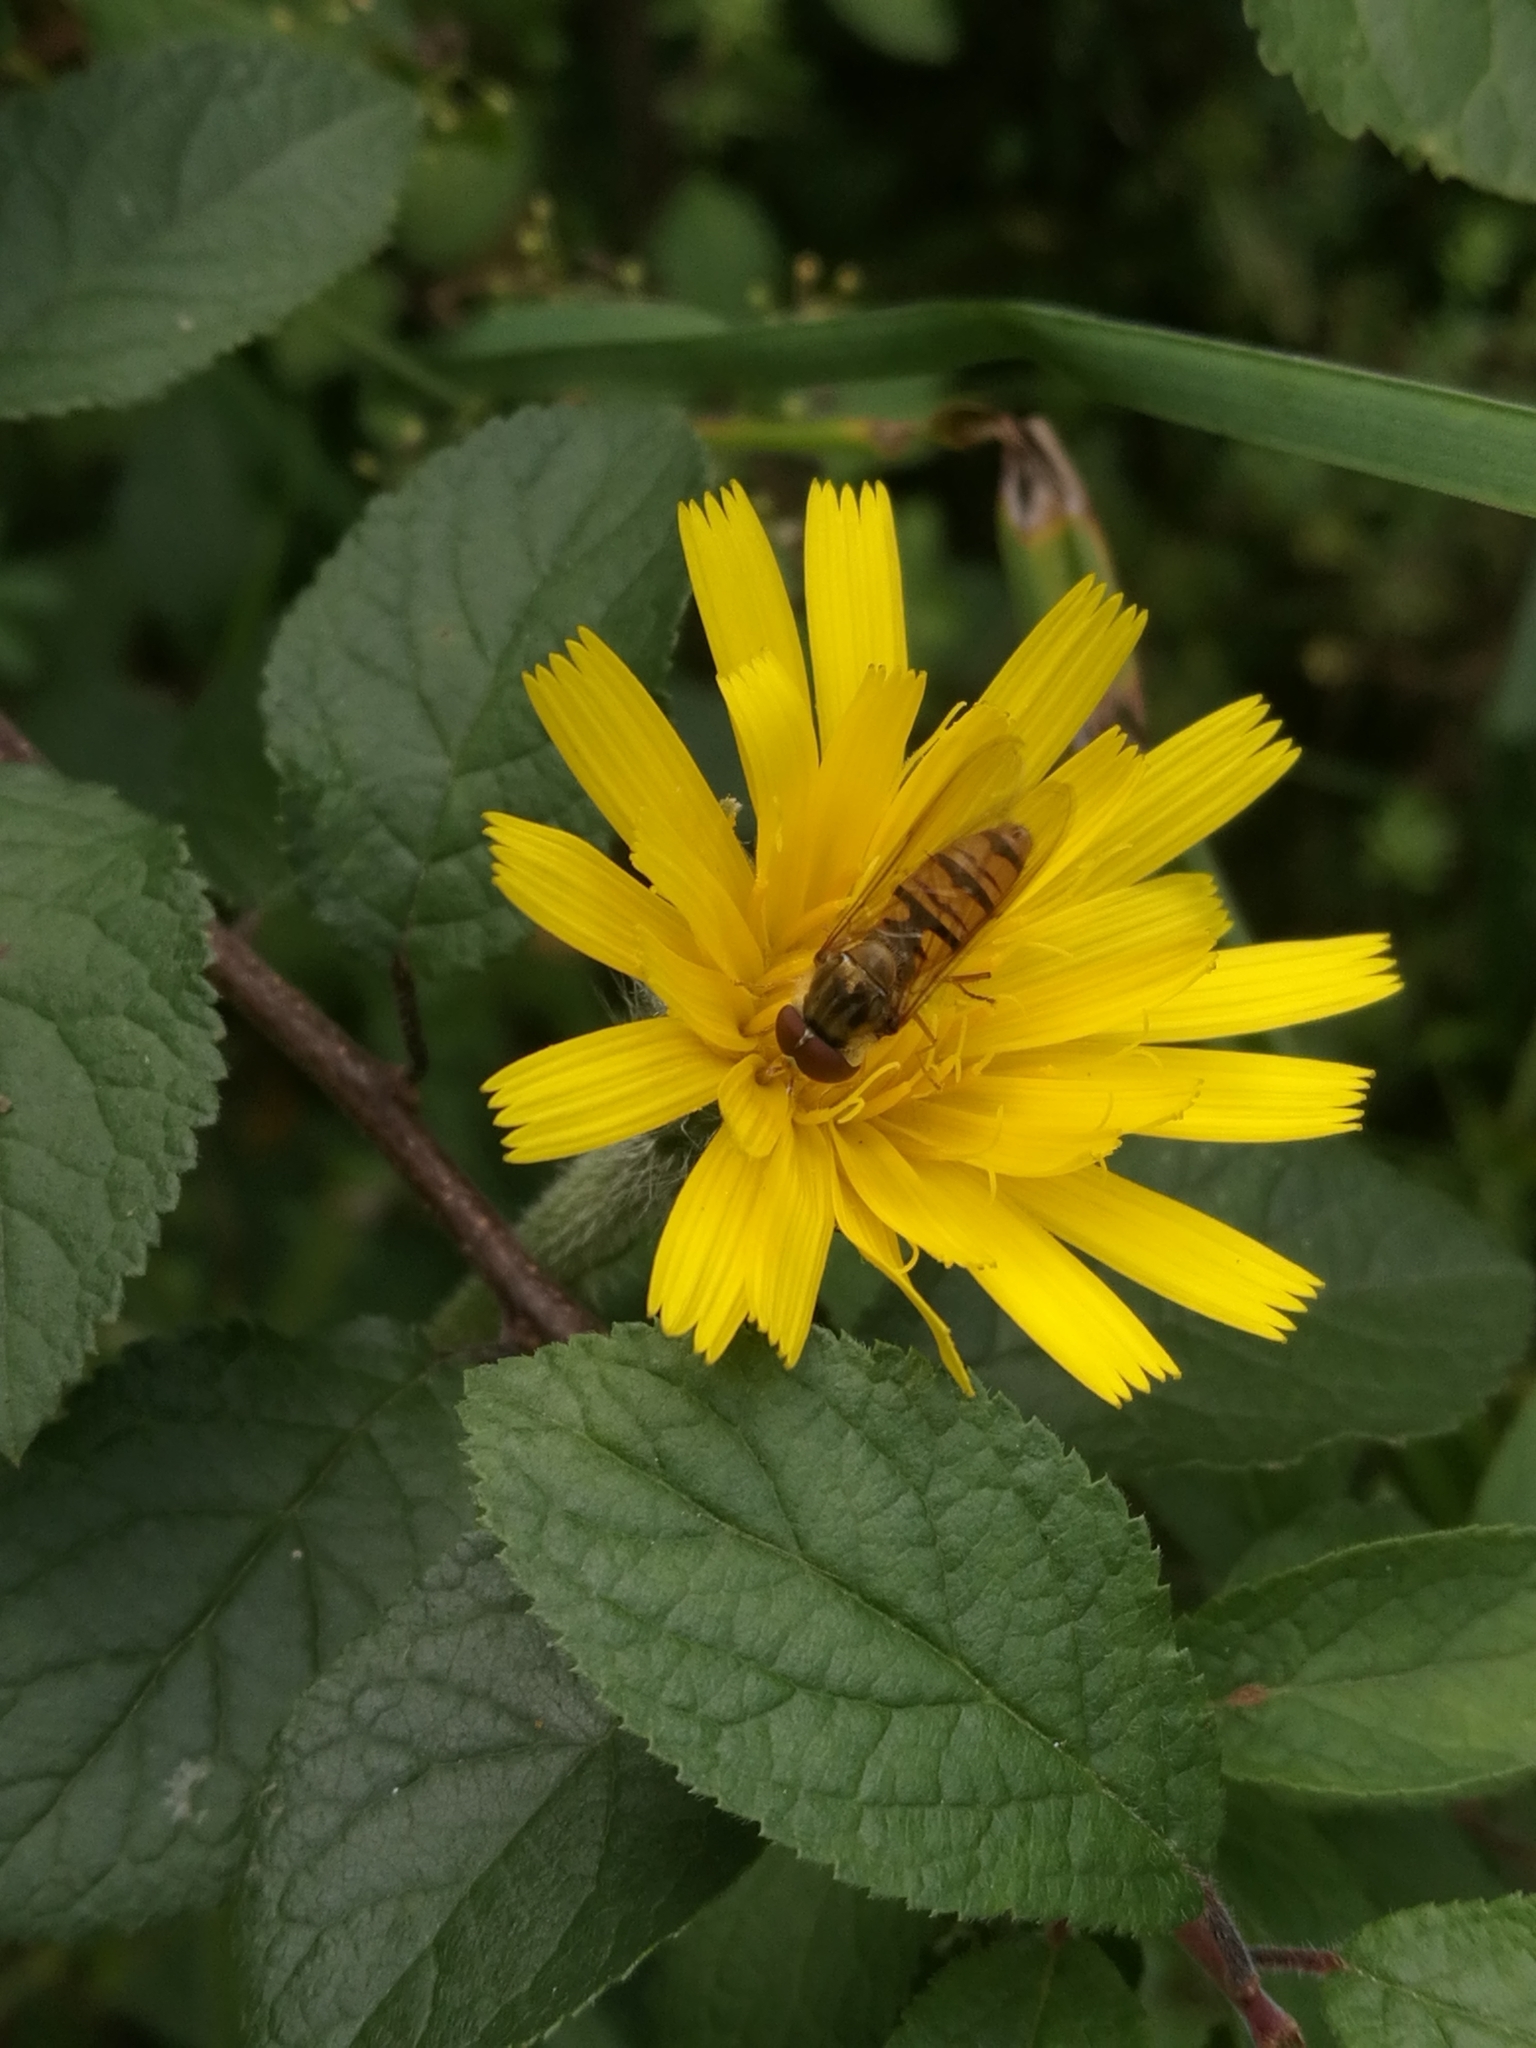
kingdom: Animalia
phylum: Arthropoda
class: Insecta
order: Diptera
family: Syrphidae
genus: Episyrphus
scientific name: Episyrphus balteatus
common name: Marmalade hoverfly
